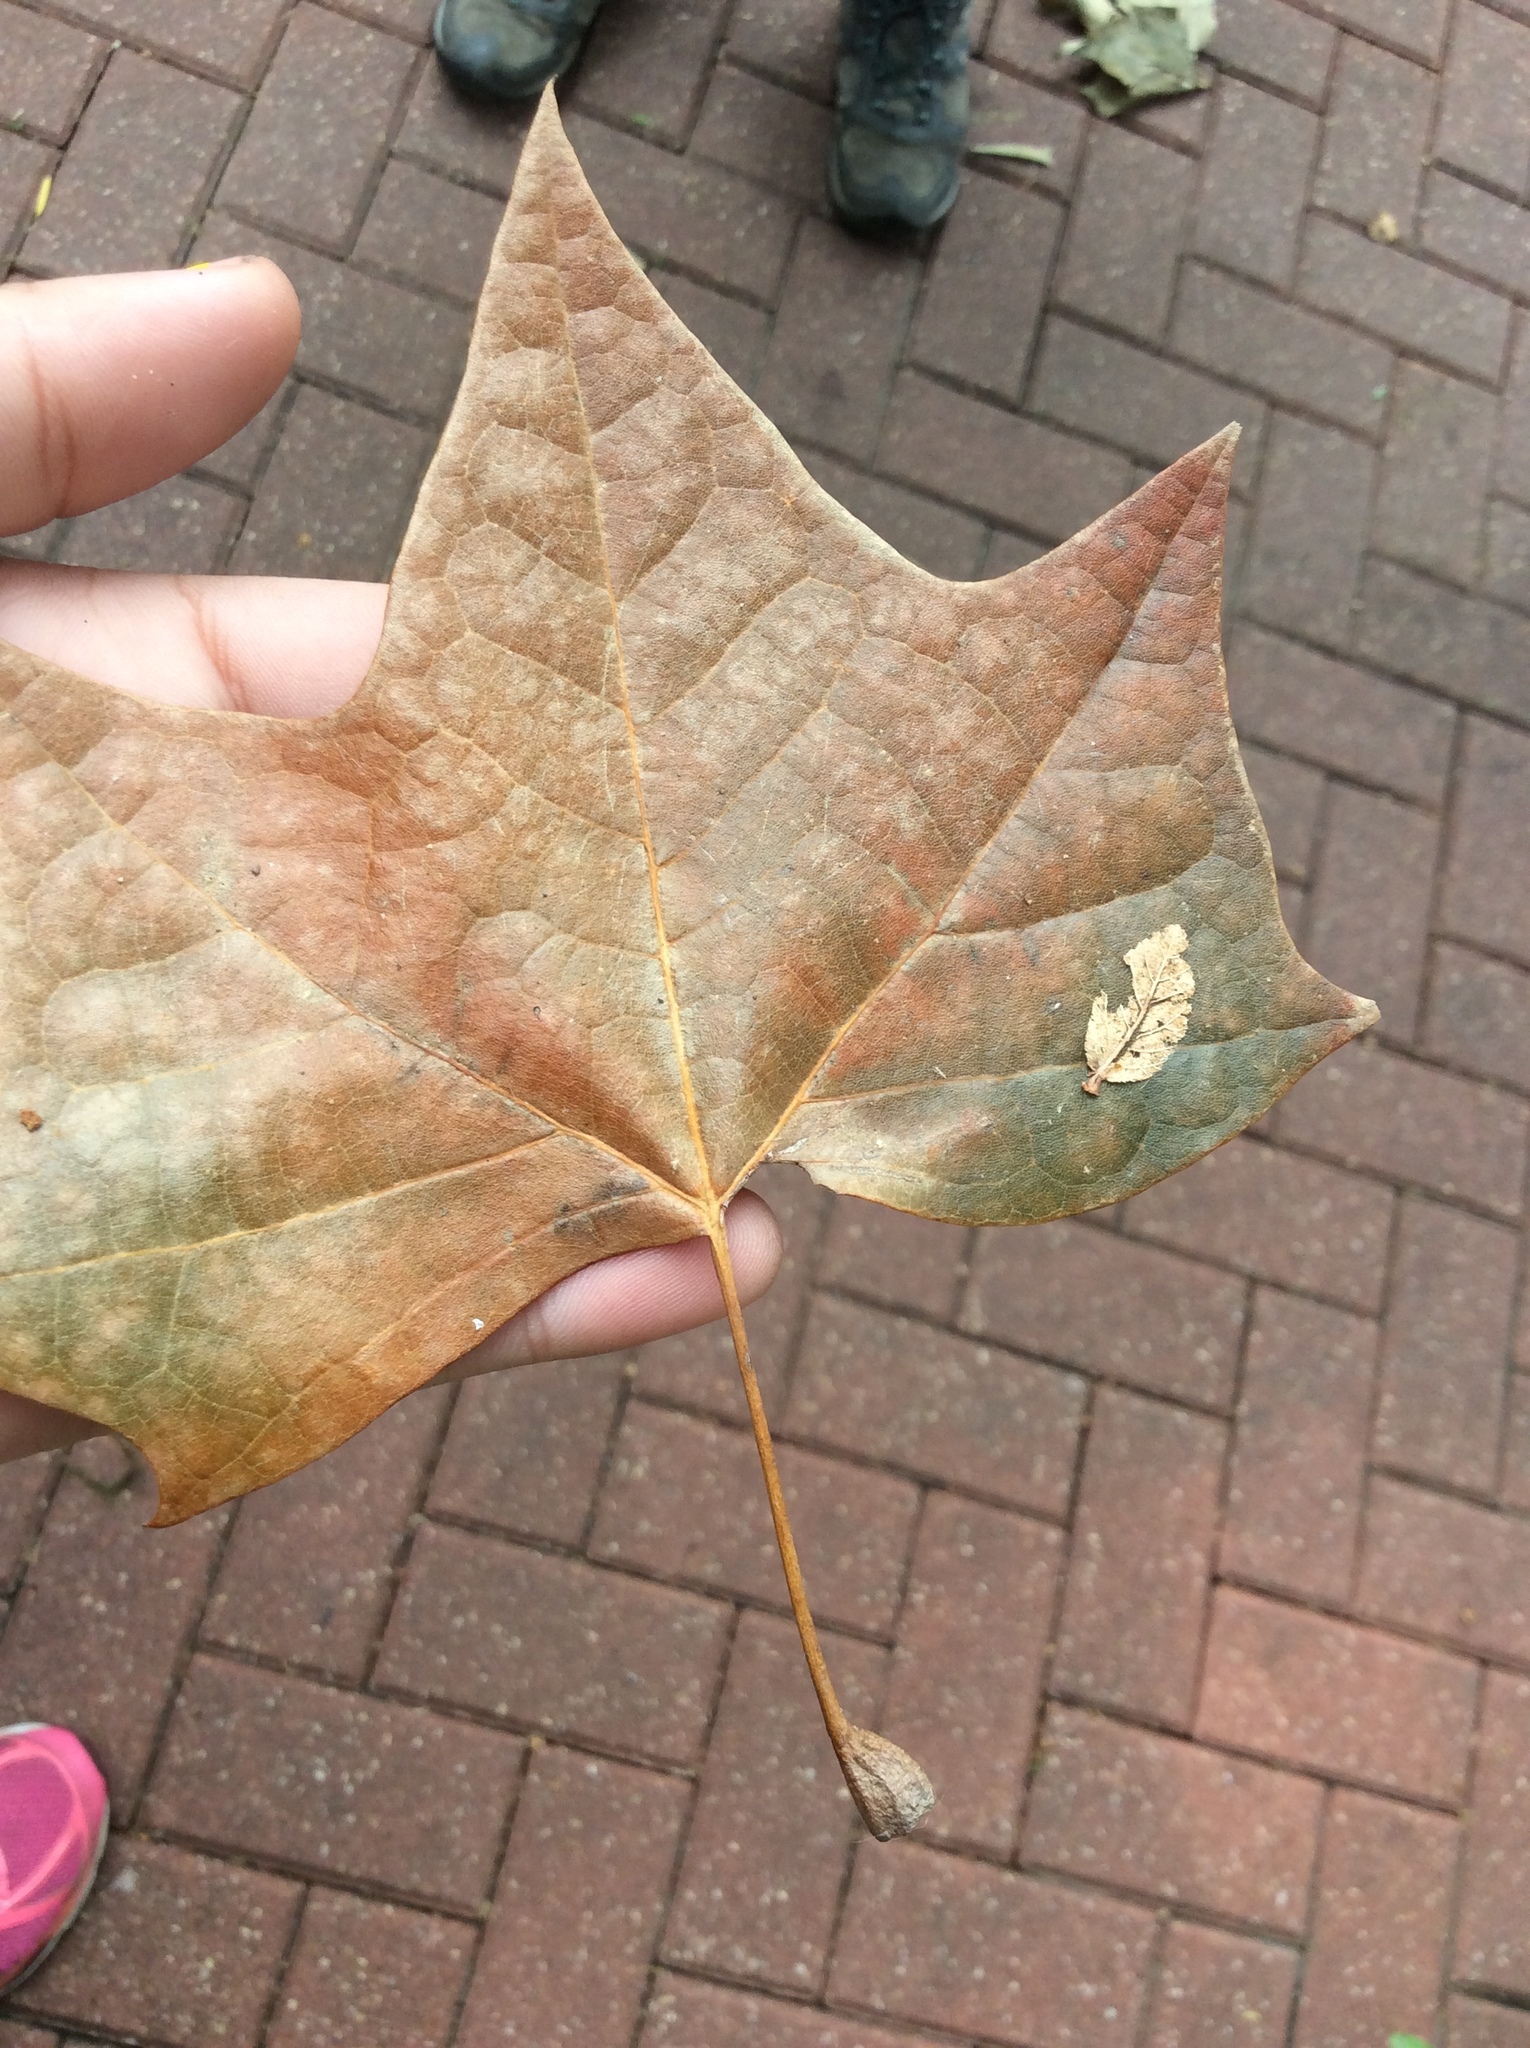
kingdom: Plantae
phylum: Tracheophyta
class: Magnoliopsida
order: Proteales
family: Platanaceae
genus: Platanus
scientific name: Platanus occidentalis
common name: American sycamore
